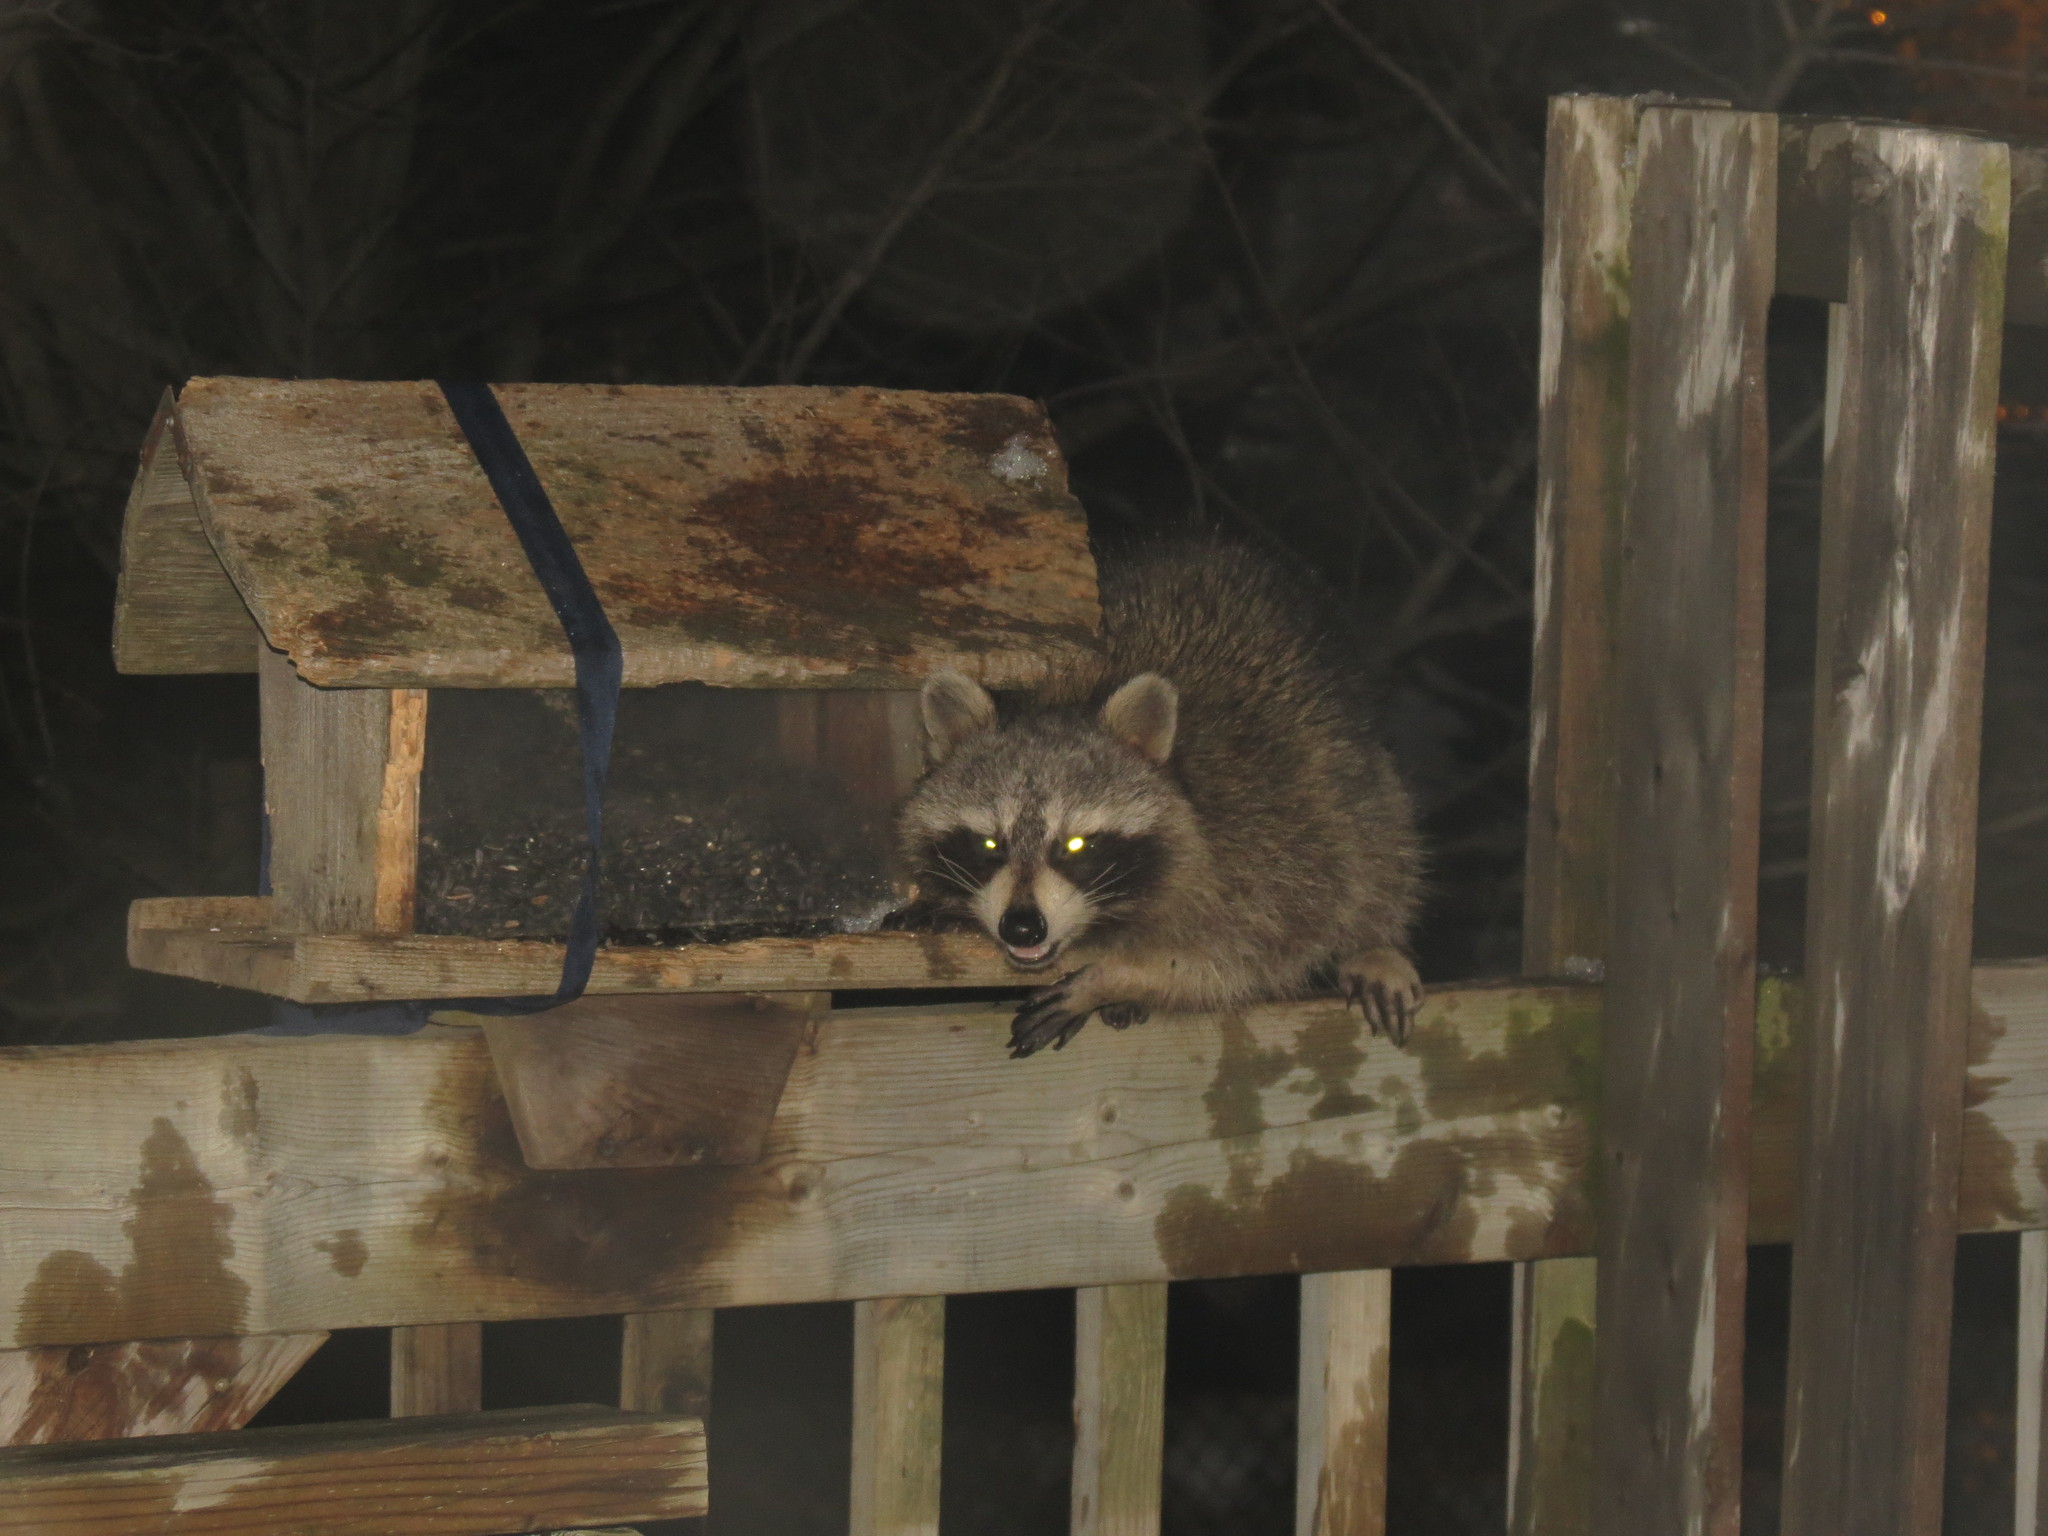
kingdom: Animalia
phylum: Chordata
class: Mammalia
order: Carnivora
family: Procyonidae
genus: Procyon
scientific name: Procyon lotor
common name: Raccoon
